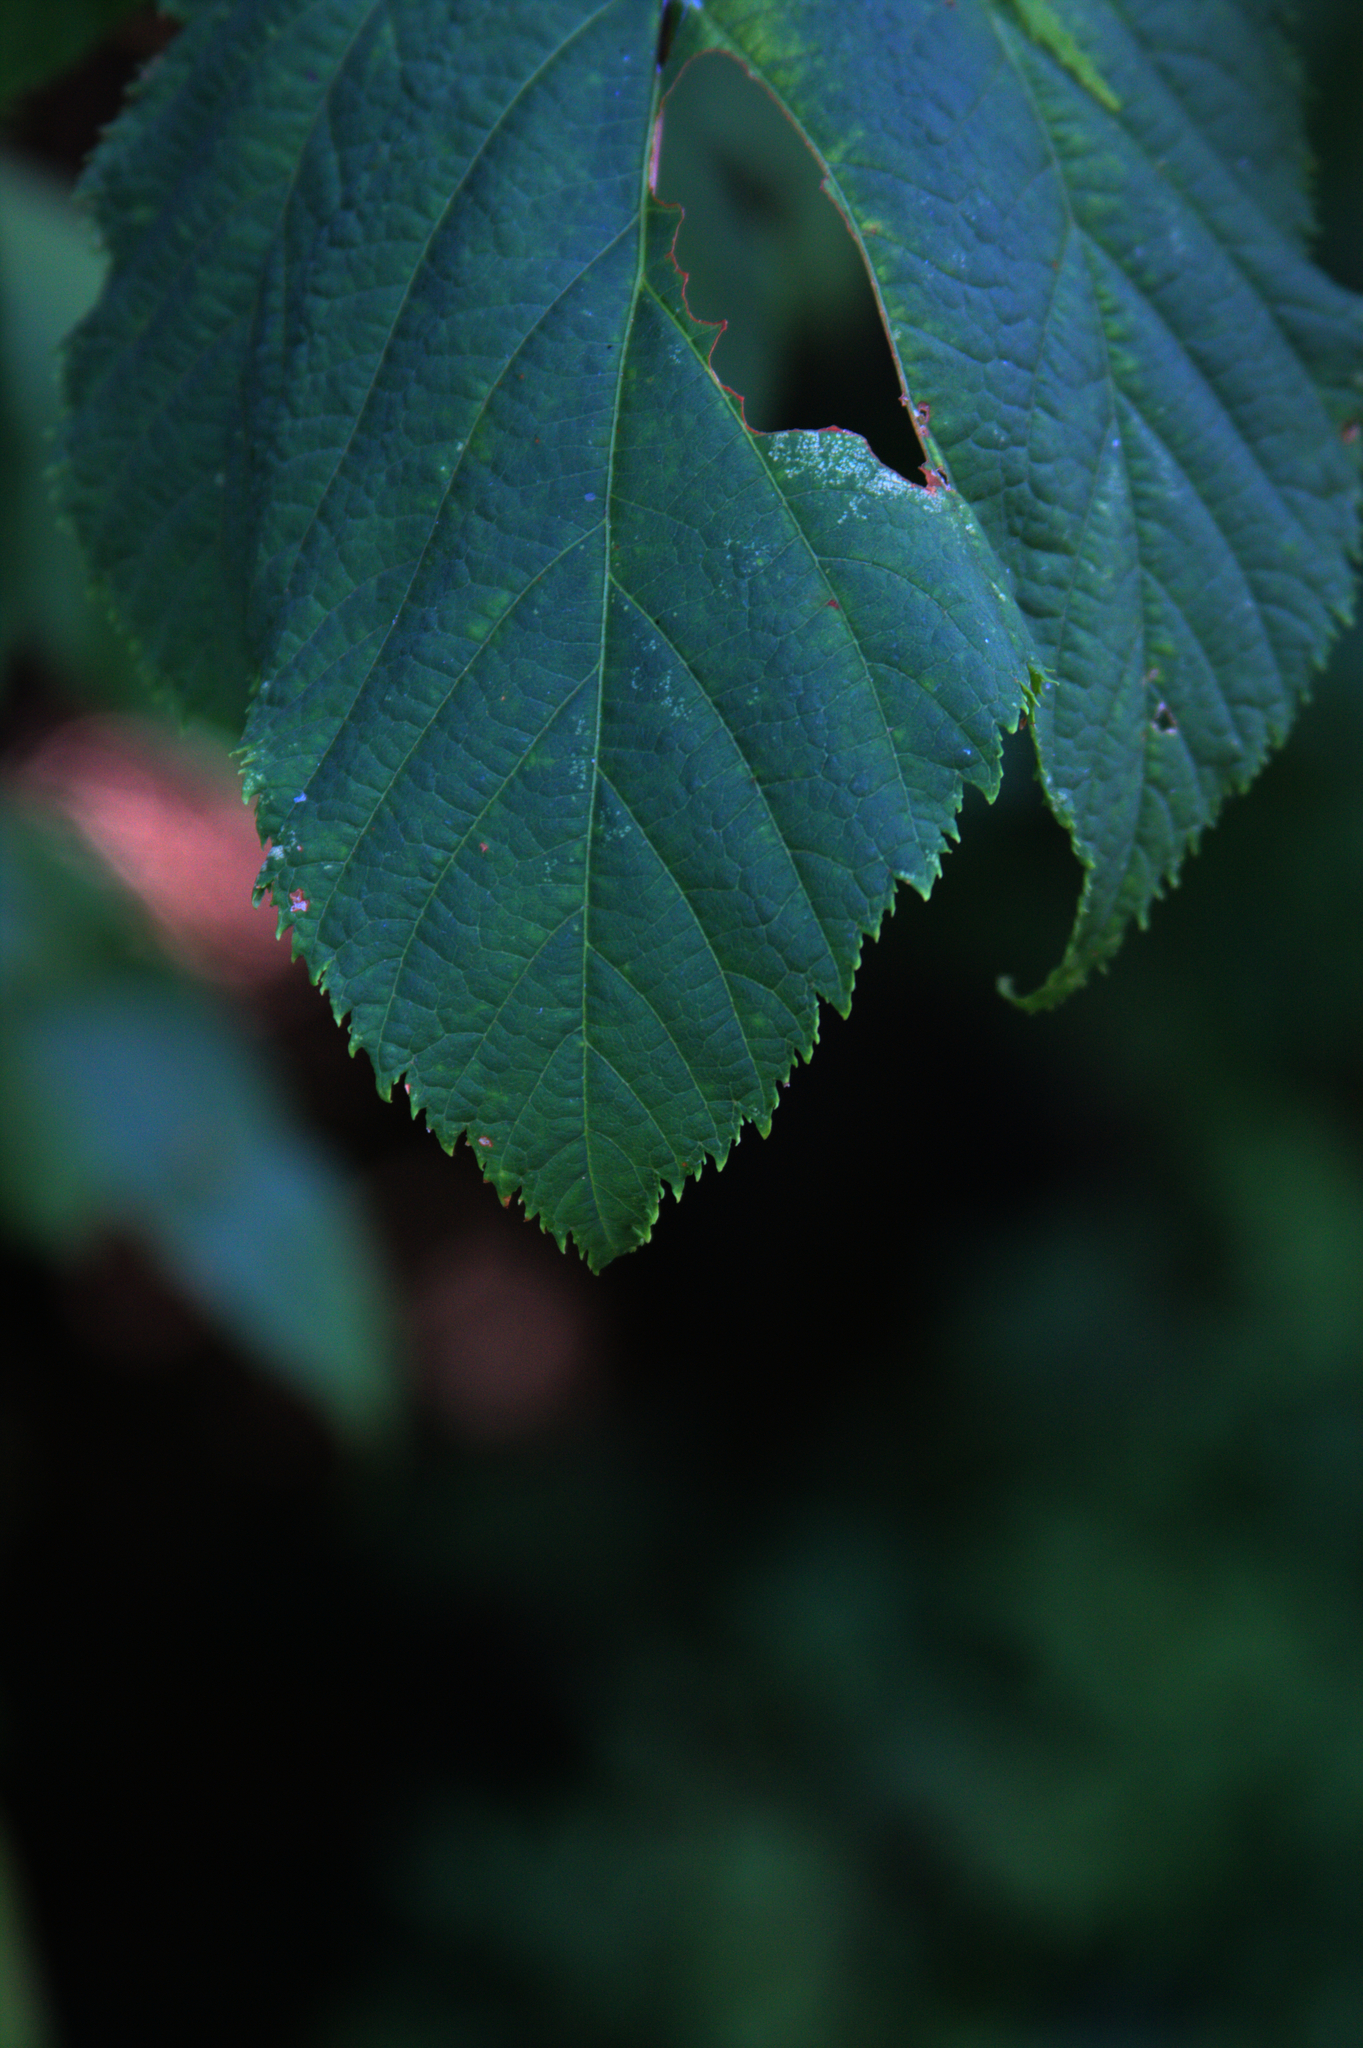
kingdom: Plantae
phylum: Tracheophyta
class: Magnoliopsida
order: Sapindales
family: Sapindaceae
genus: Acer
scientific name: Acer pensylvanicum
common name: Moosewood
